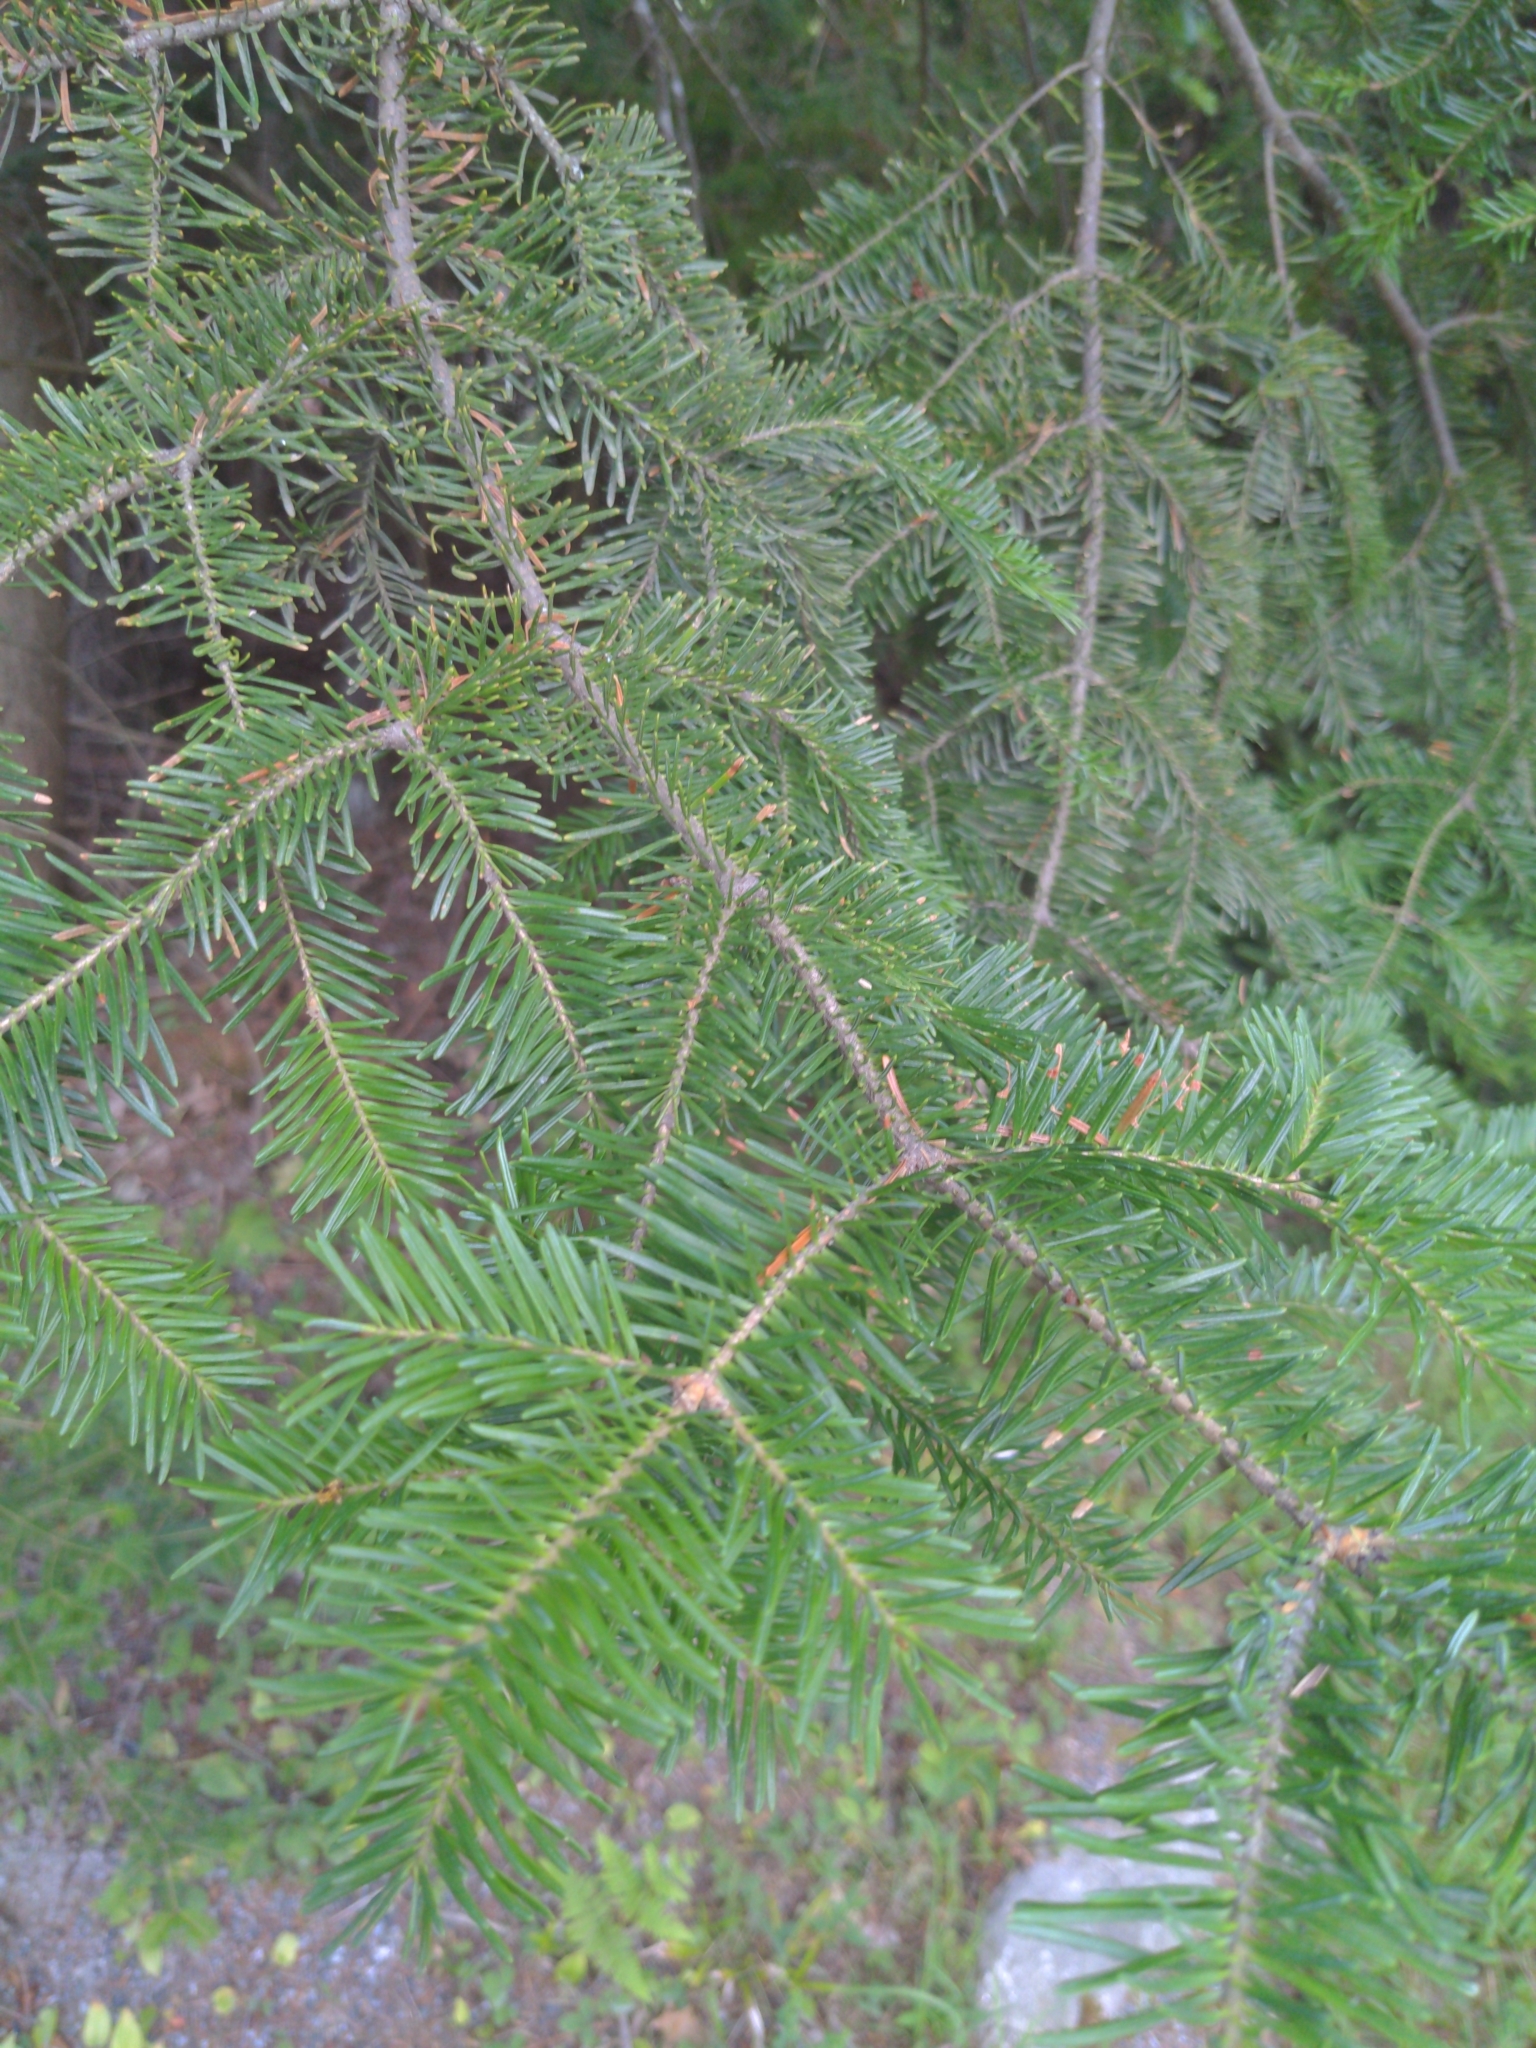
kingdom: Plantae
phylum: Tracheophyta
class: Pinopsida
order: Pinales
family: Pinaceae
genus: Abies
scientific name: Abies balsamea
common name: Balsam fir
